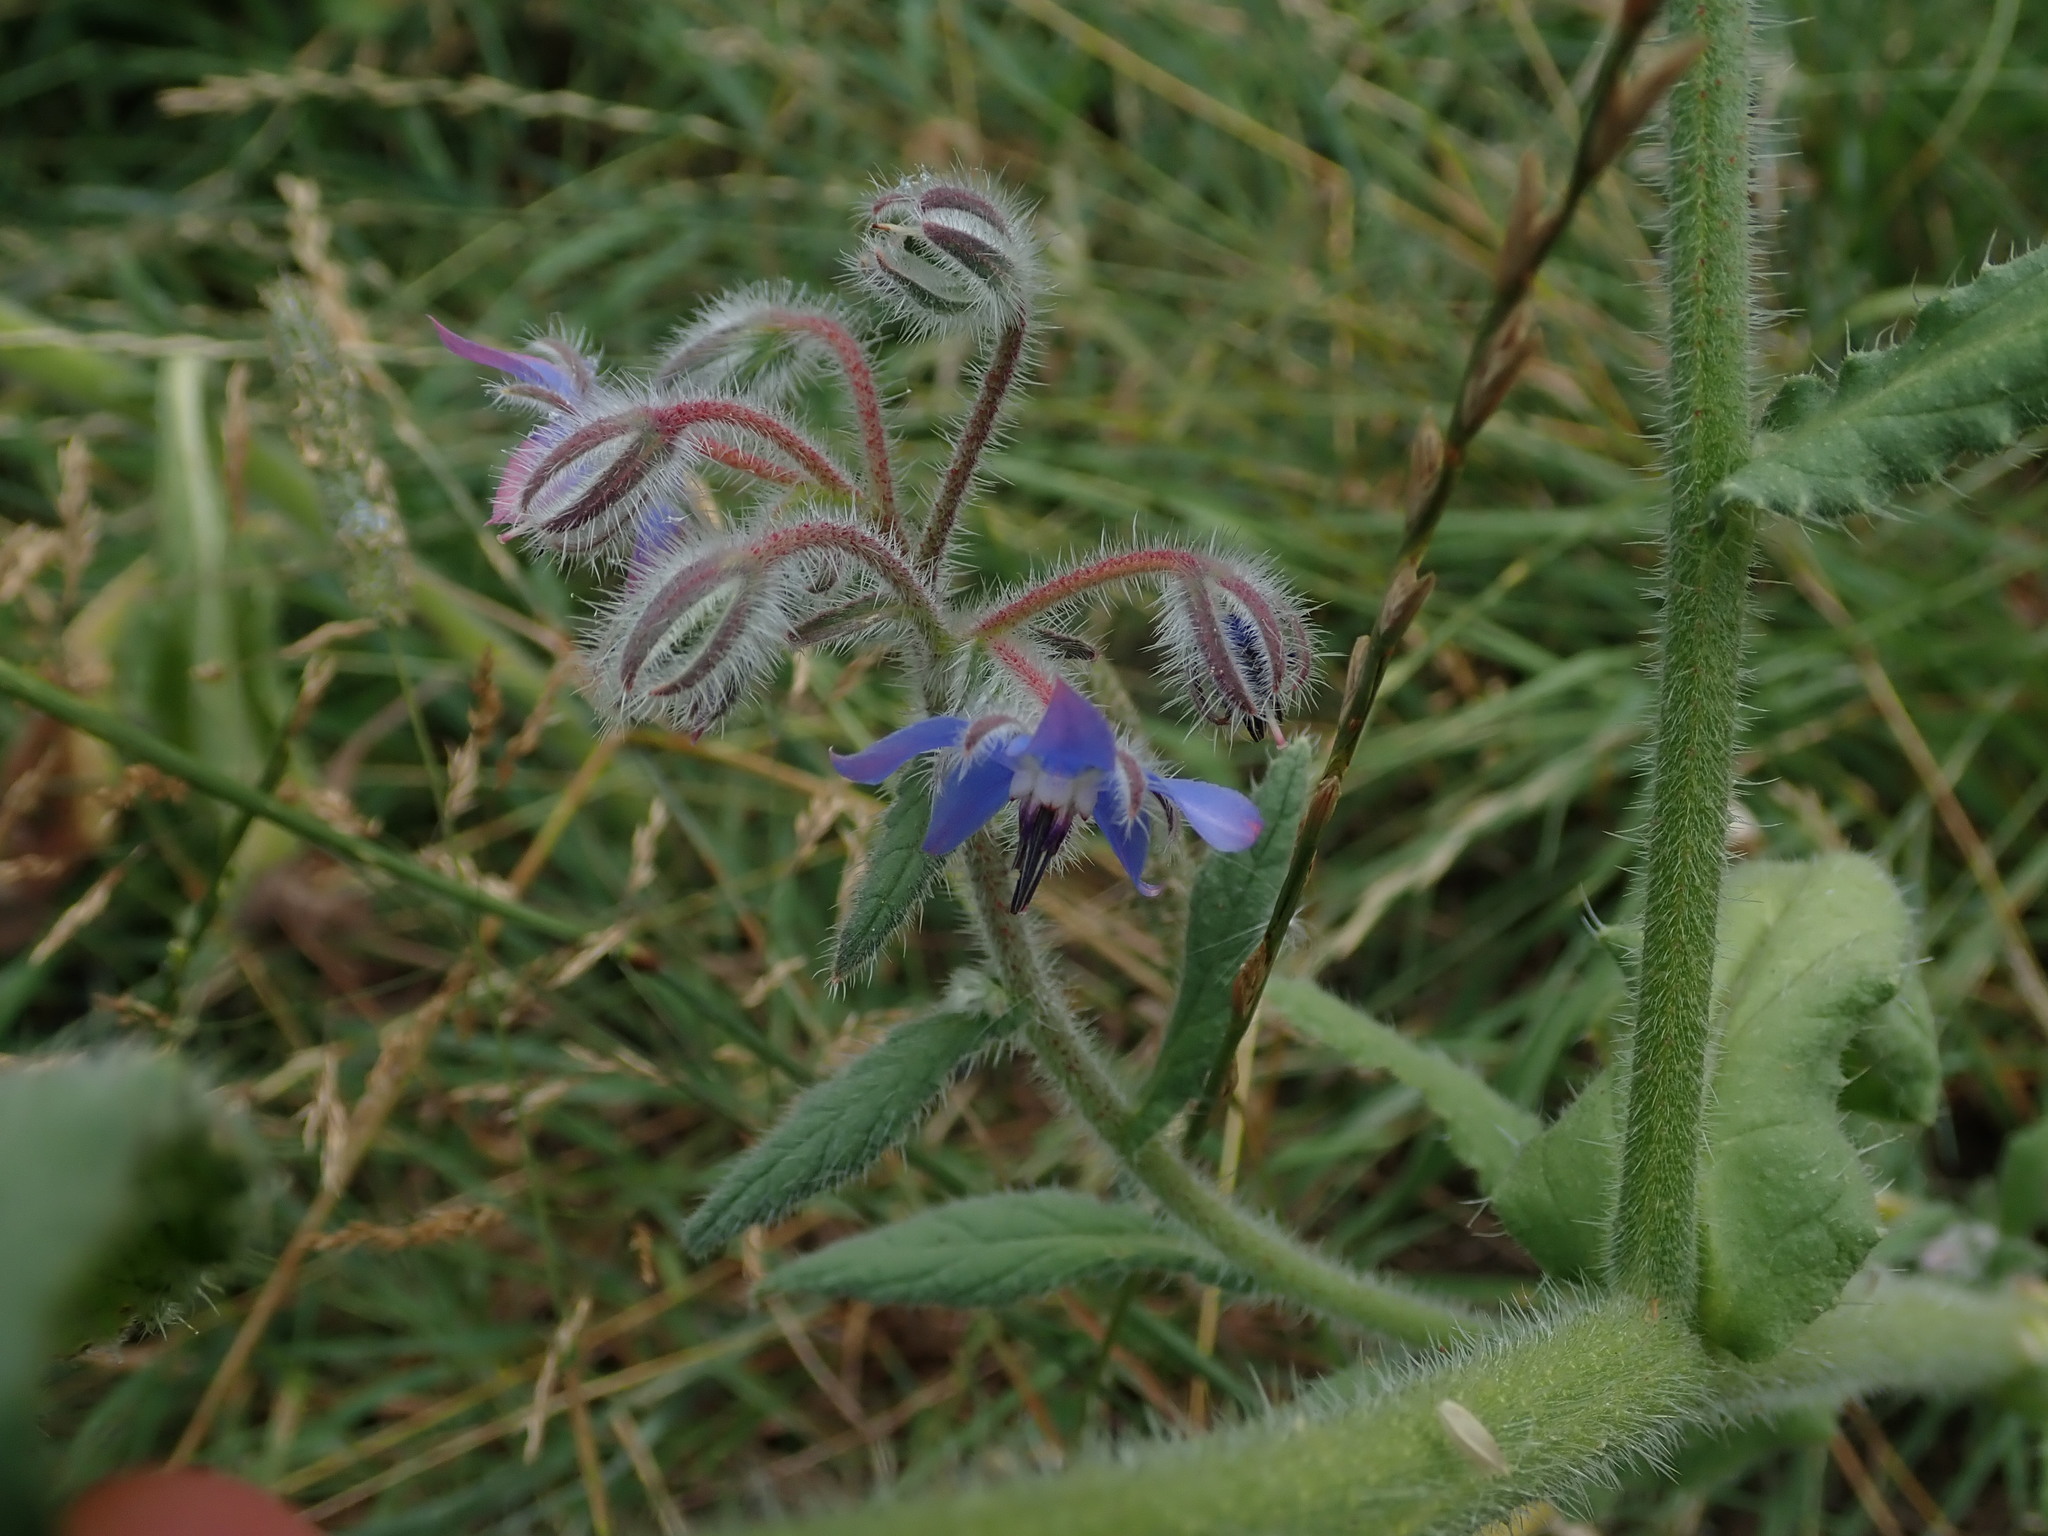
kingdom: Plantae
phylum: Tracheophyta
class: Magnoliopsida
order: Boraginales
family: Boraginaceae
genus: Borago
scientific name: Borago officinalis
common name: Borage
